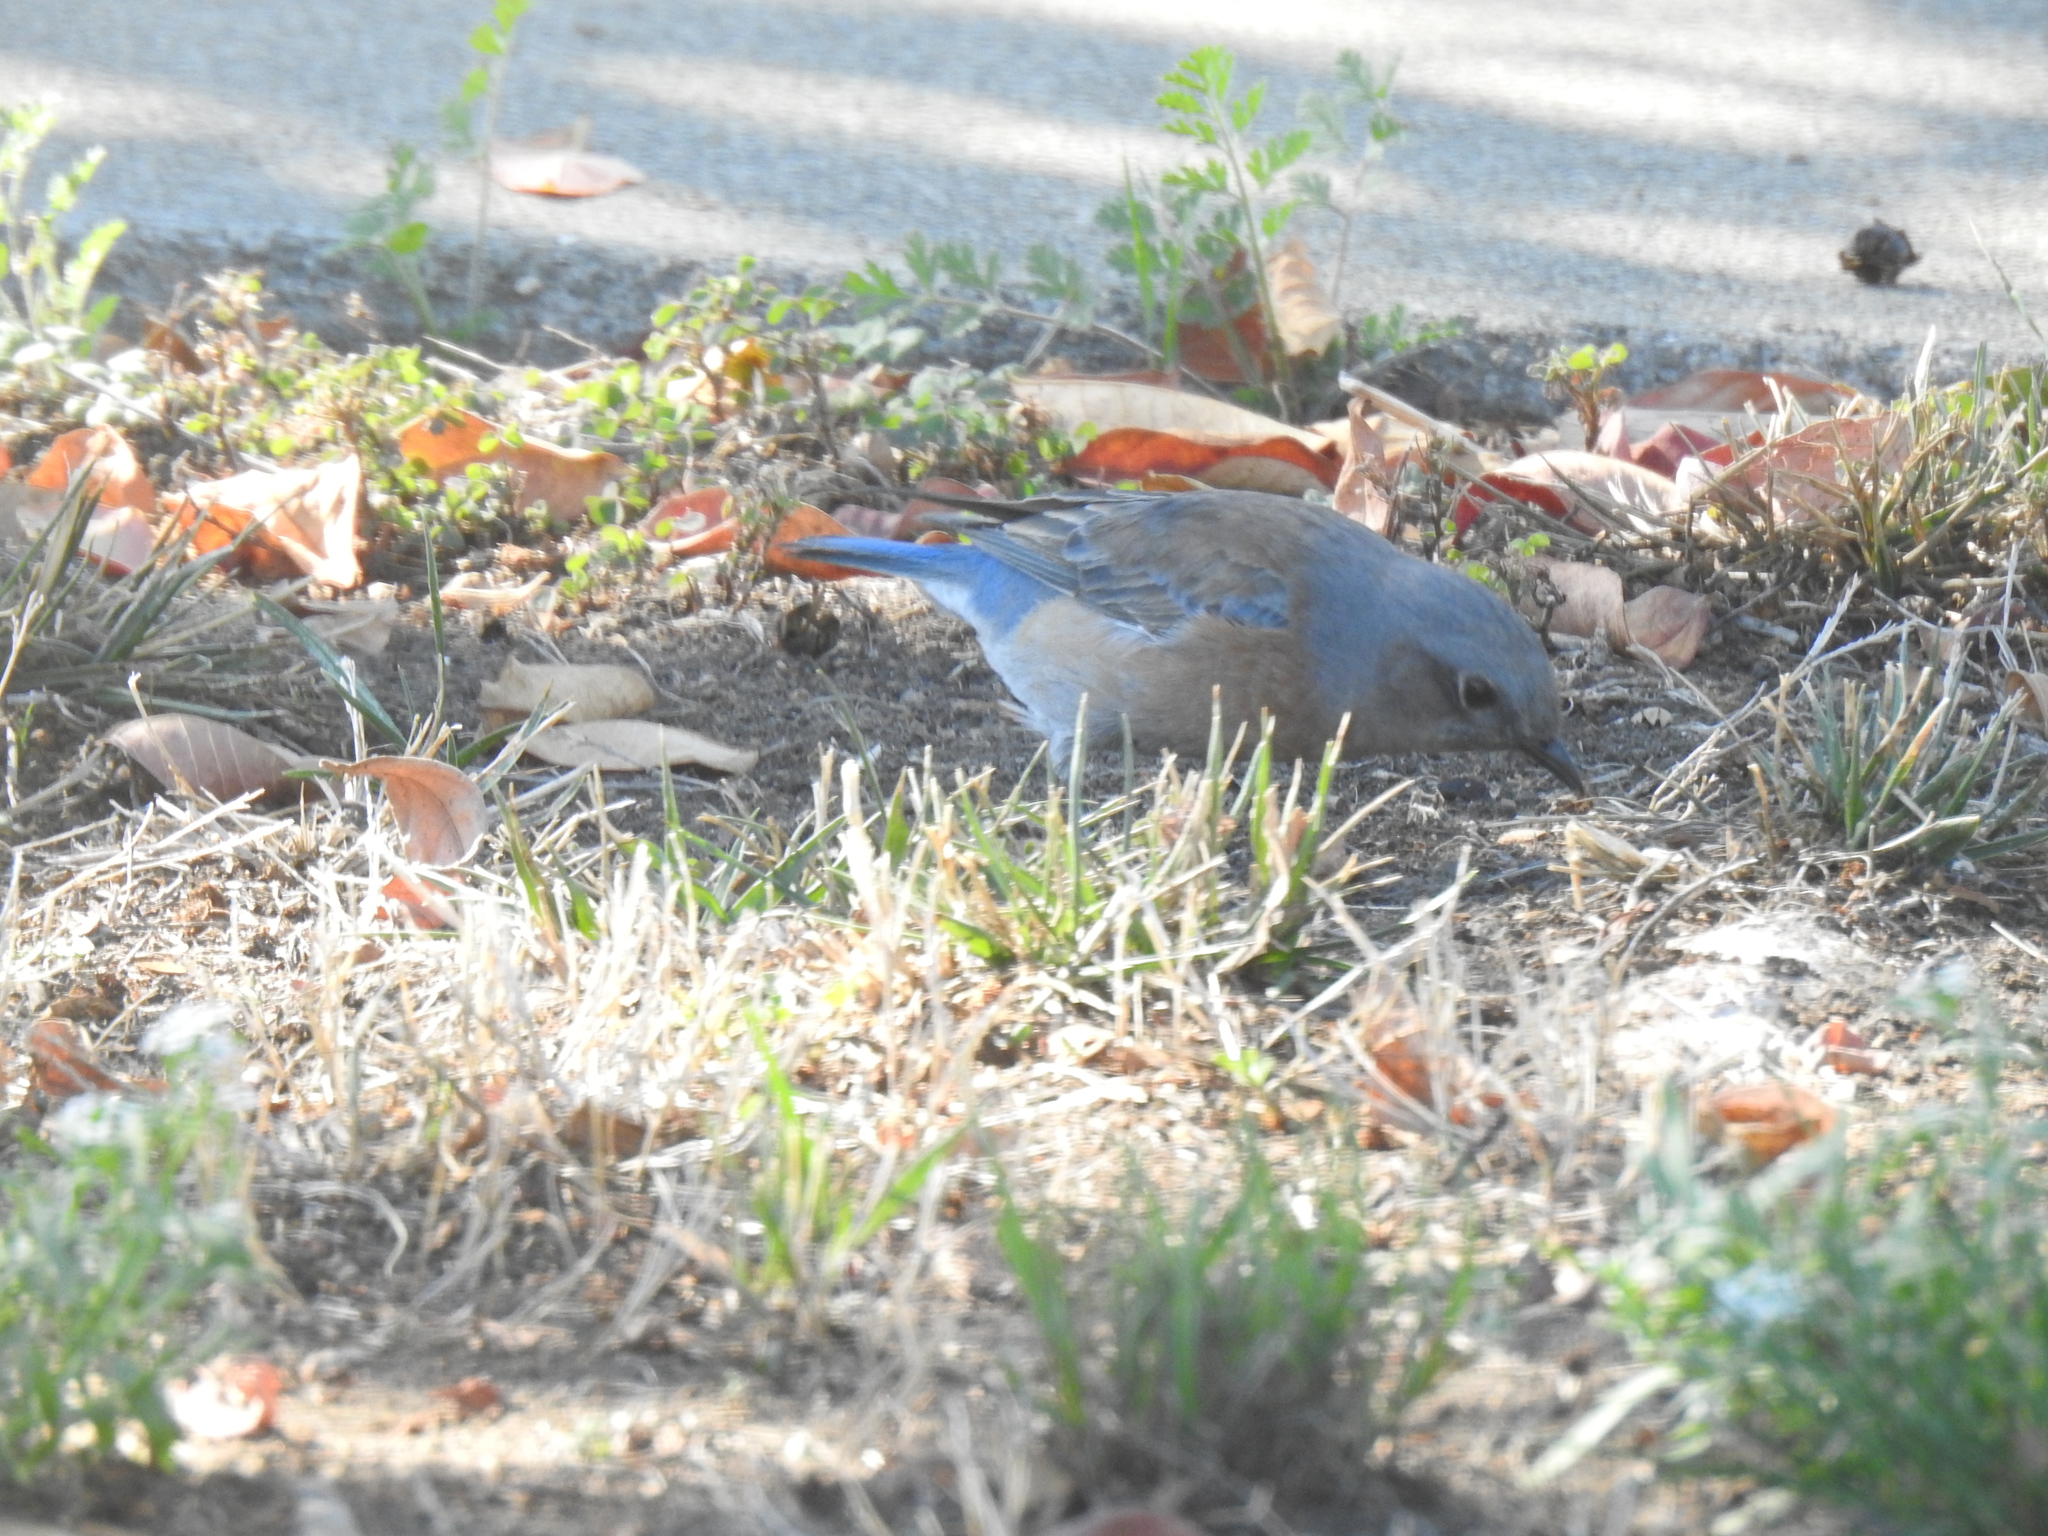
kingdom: Animalia
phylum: Chordata
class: Aves
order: Passeriformes
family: Turdidae
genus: Sialia
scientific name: Sialia mexicana
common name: Western bluebird
